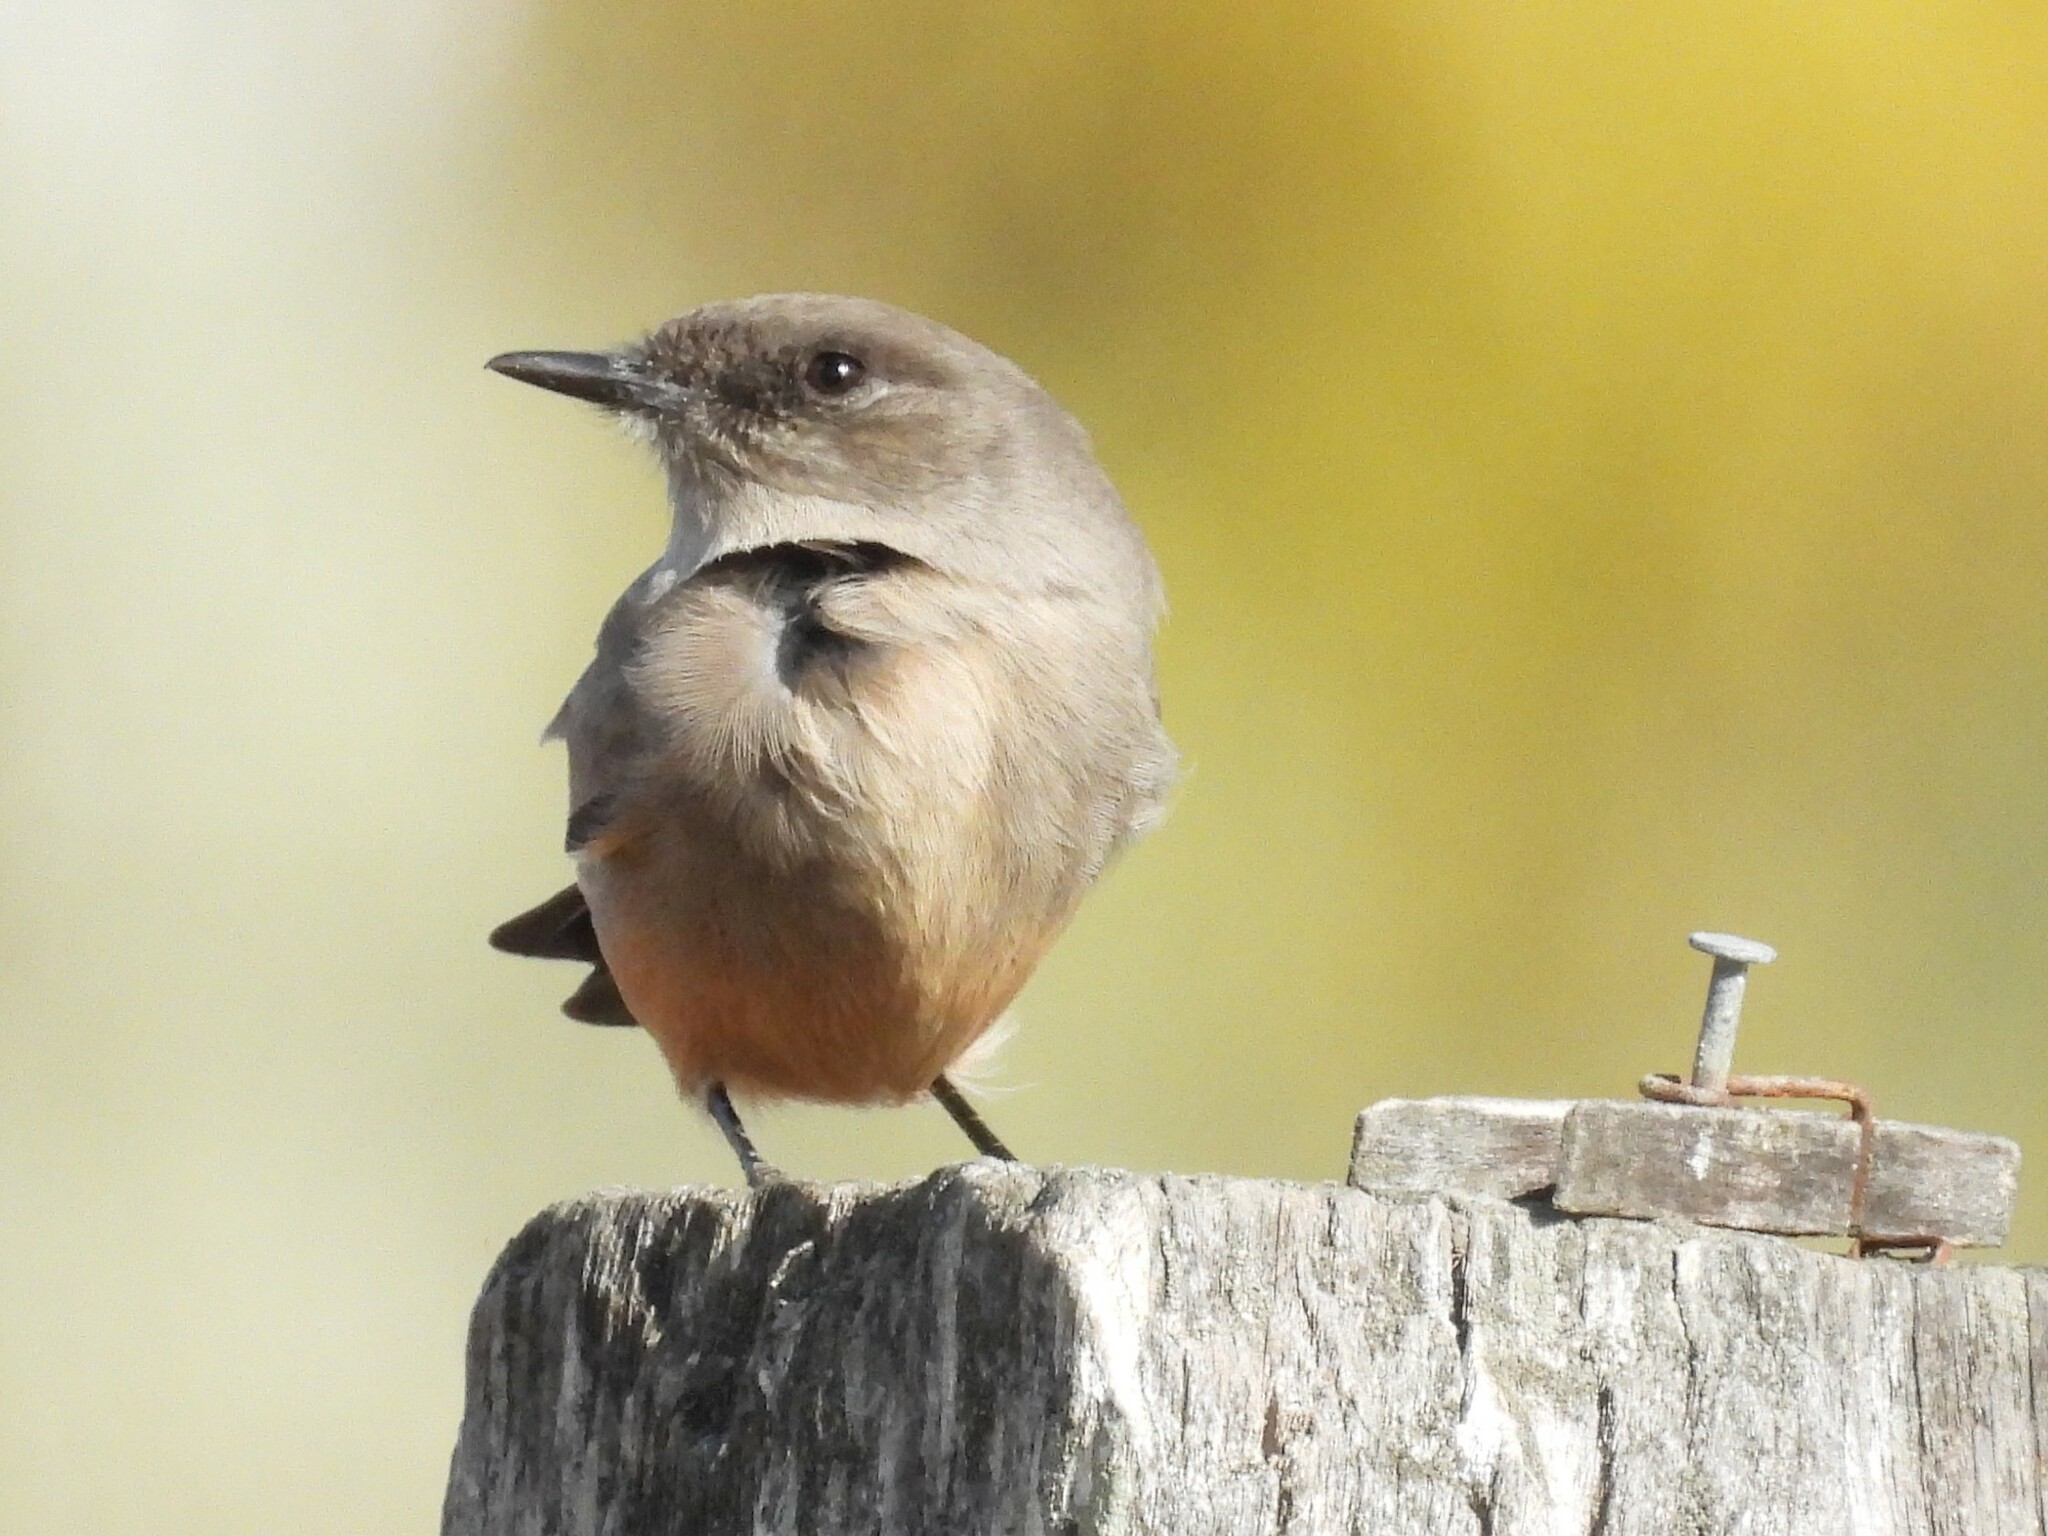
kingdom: Animalia
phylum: Chordata
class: Aves
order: Passeriformes
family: Tyrannidae
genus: Sayornis
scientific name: Sayornis saya
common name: Say's phoebe
